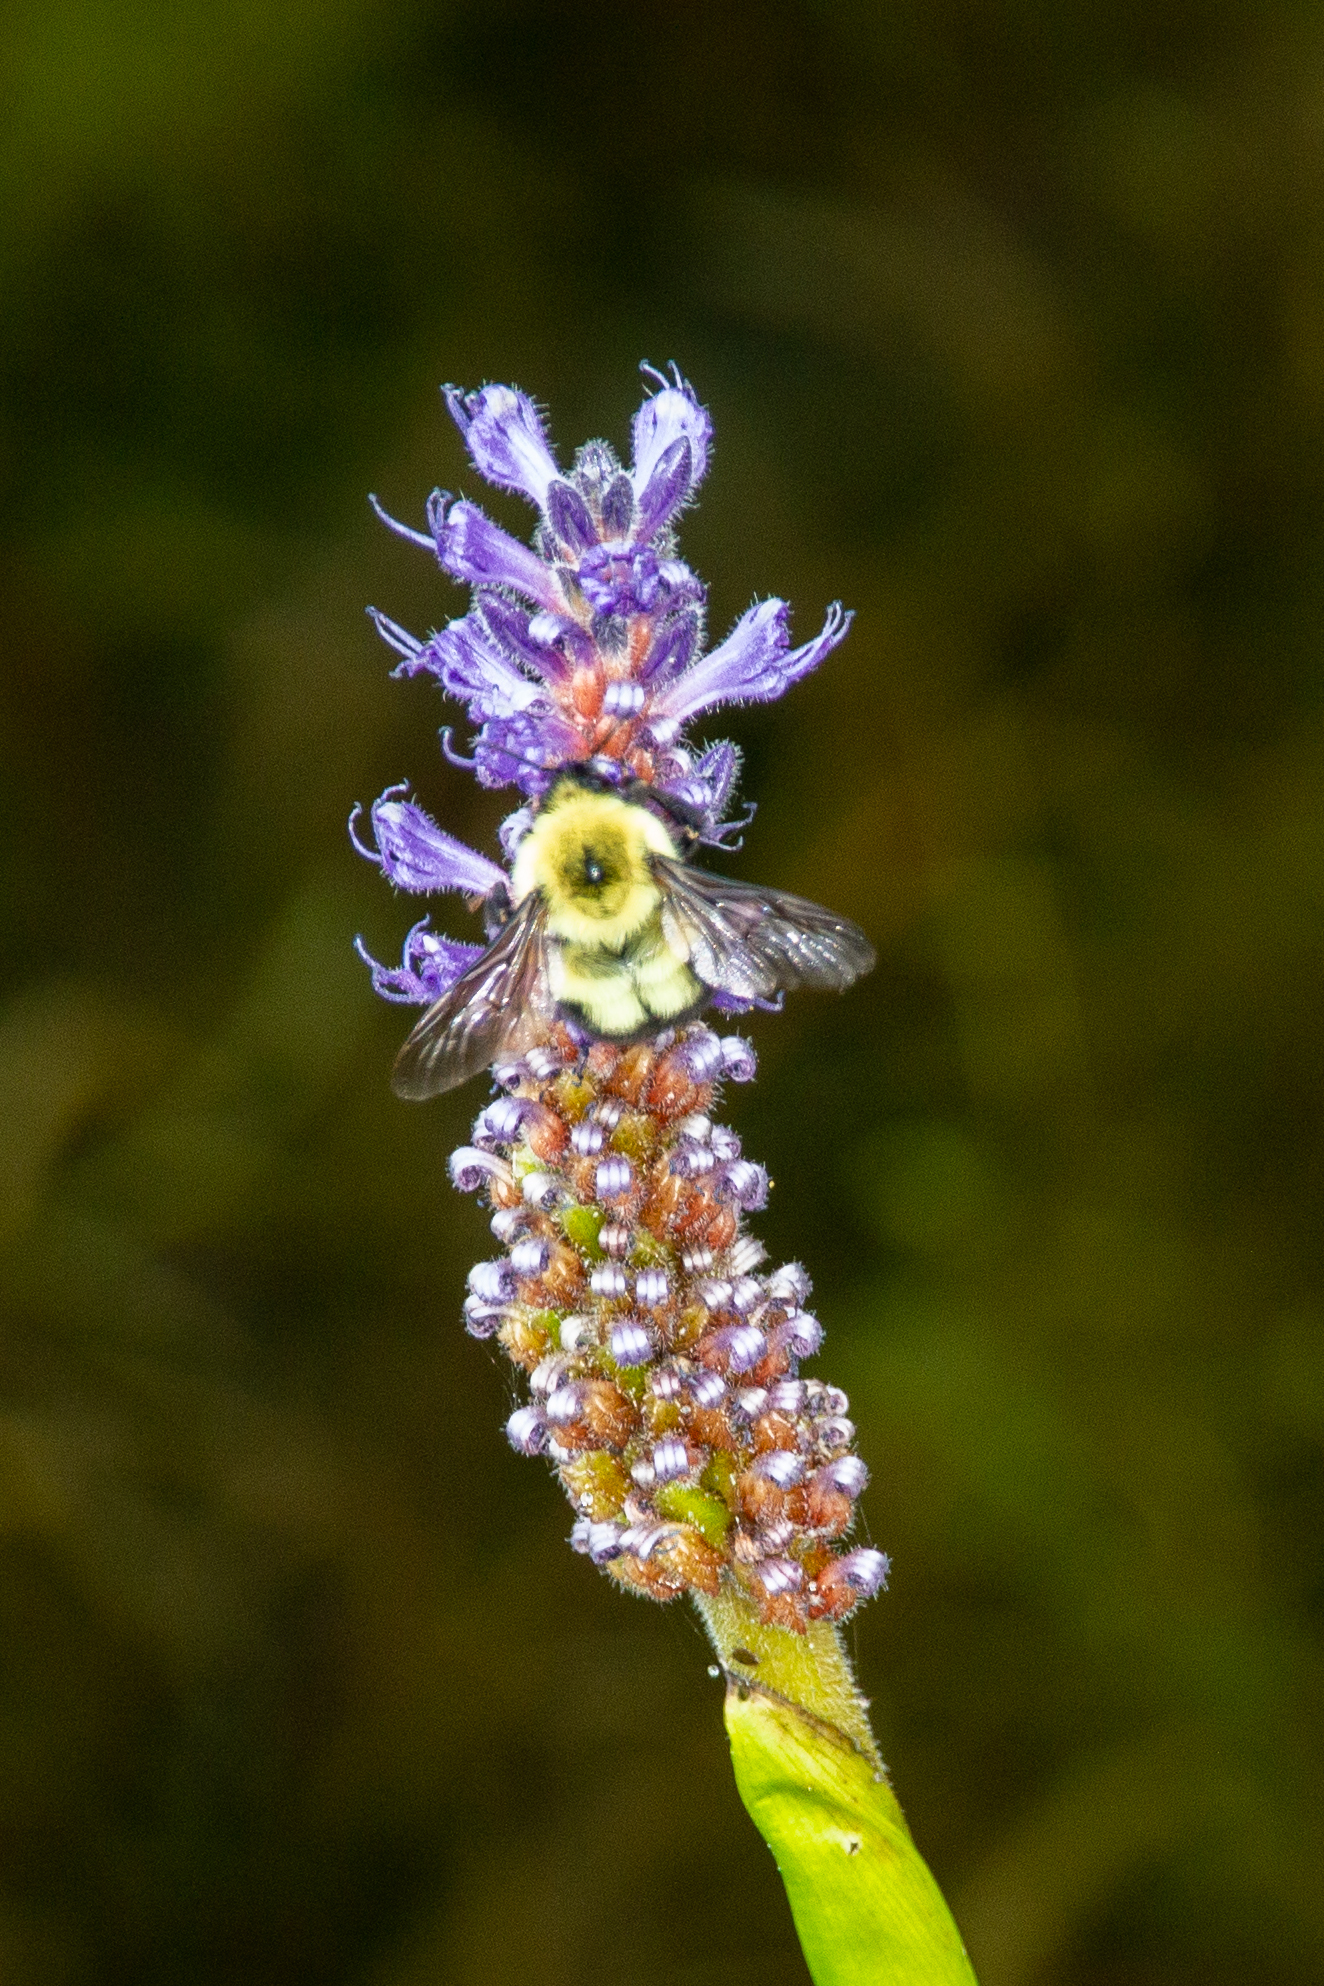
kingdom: Animalia
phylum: Arthropoda
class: Insecta
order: Hymenoptera
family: Apidae
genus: Bombus
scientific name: Bombus bimaculatus
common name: Two-spotted bumble bee
